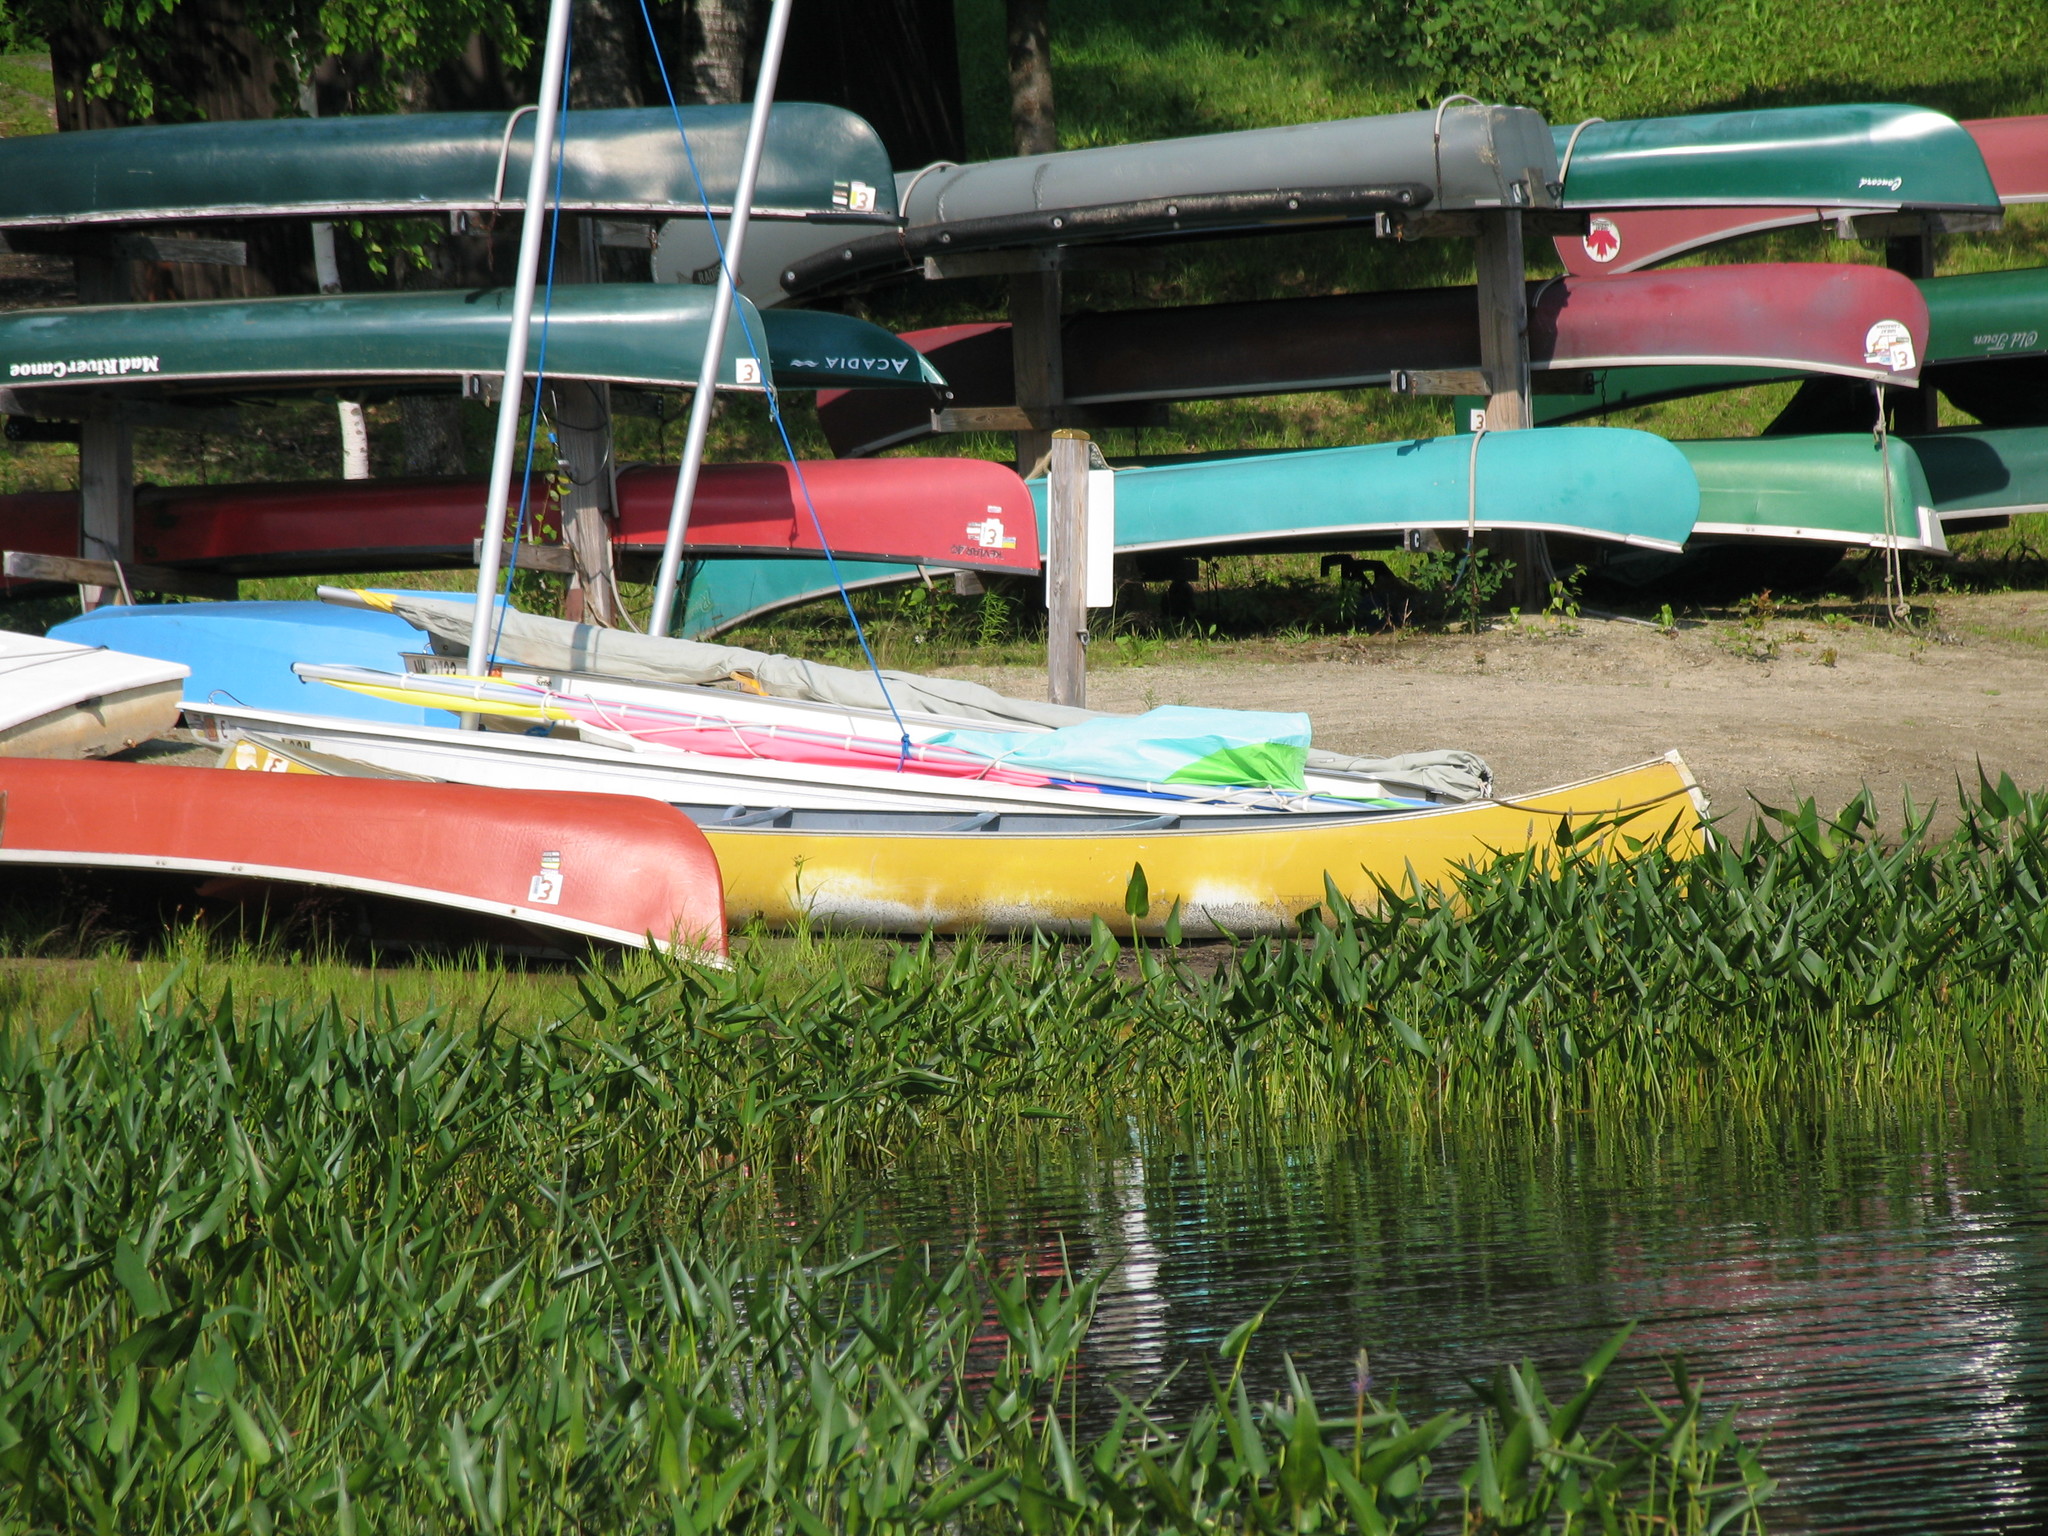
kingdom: Plantae
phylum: Tracheophyta
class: Liliopsida
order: Commelinales
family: Pontederiaceae
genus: Pontederia
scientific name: Pontederia cordata
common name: Pickerelweed
